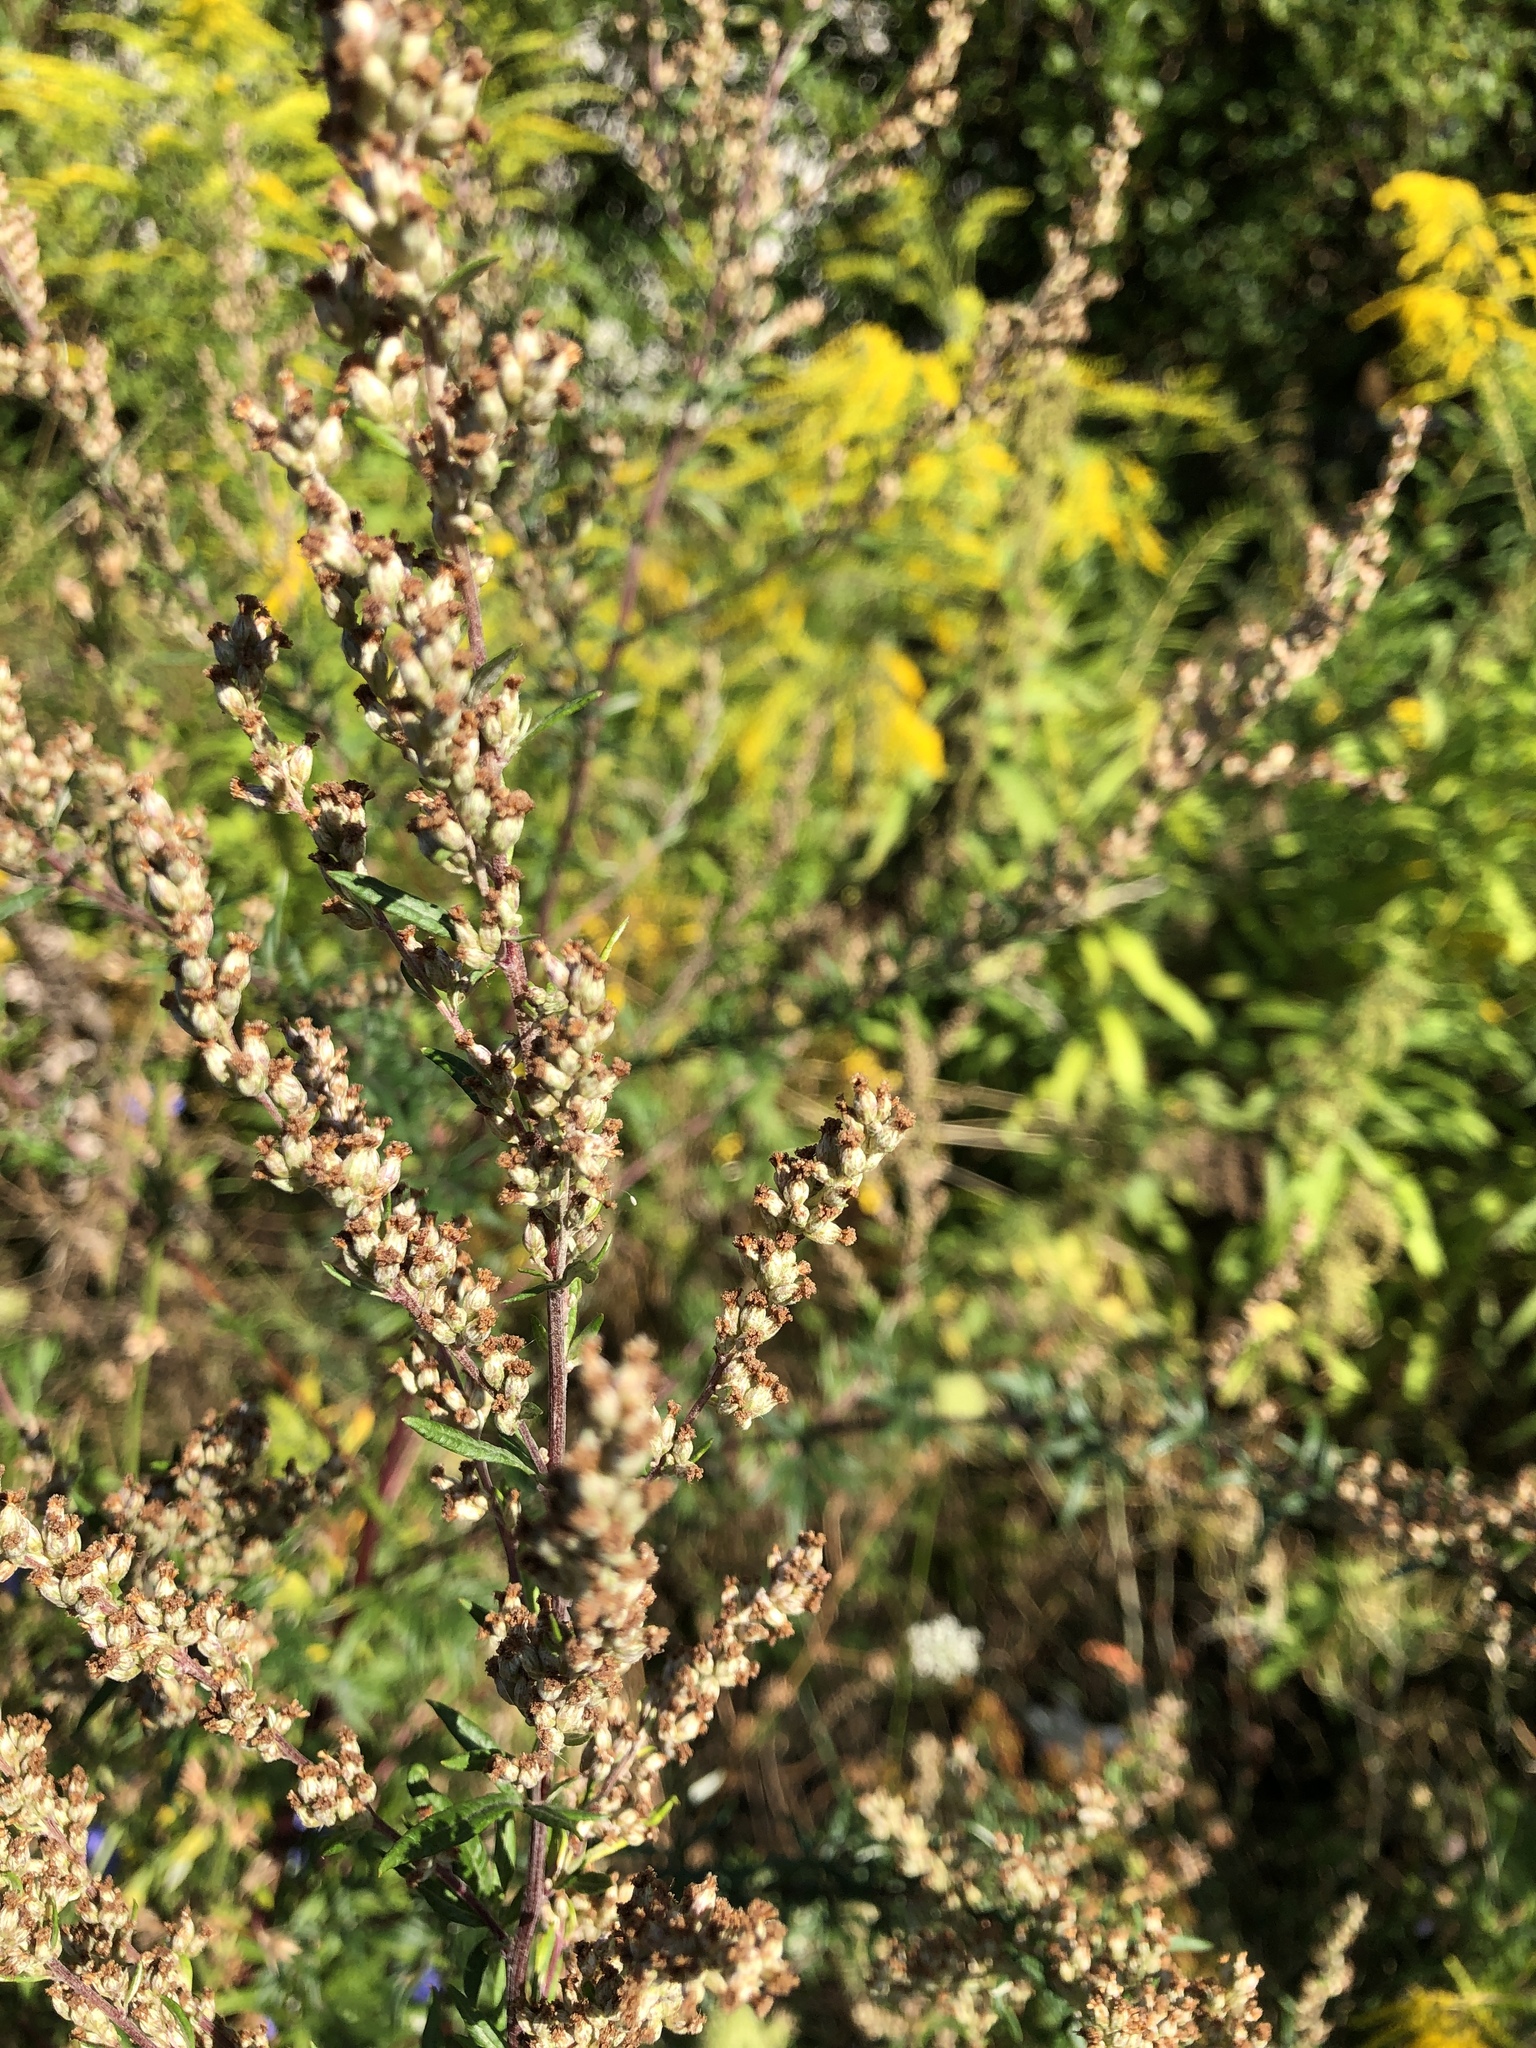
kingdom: Plantae
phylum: Tracheophyta
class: Magnoliopsida
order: Asterales
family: Asteraceae
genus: Artemisia
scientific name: Artemisia vulgaris
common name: Mugwort
